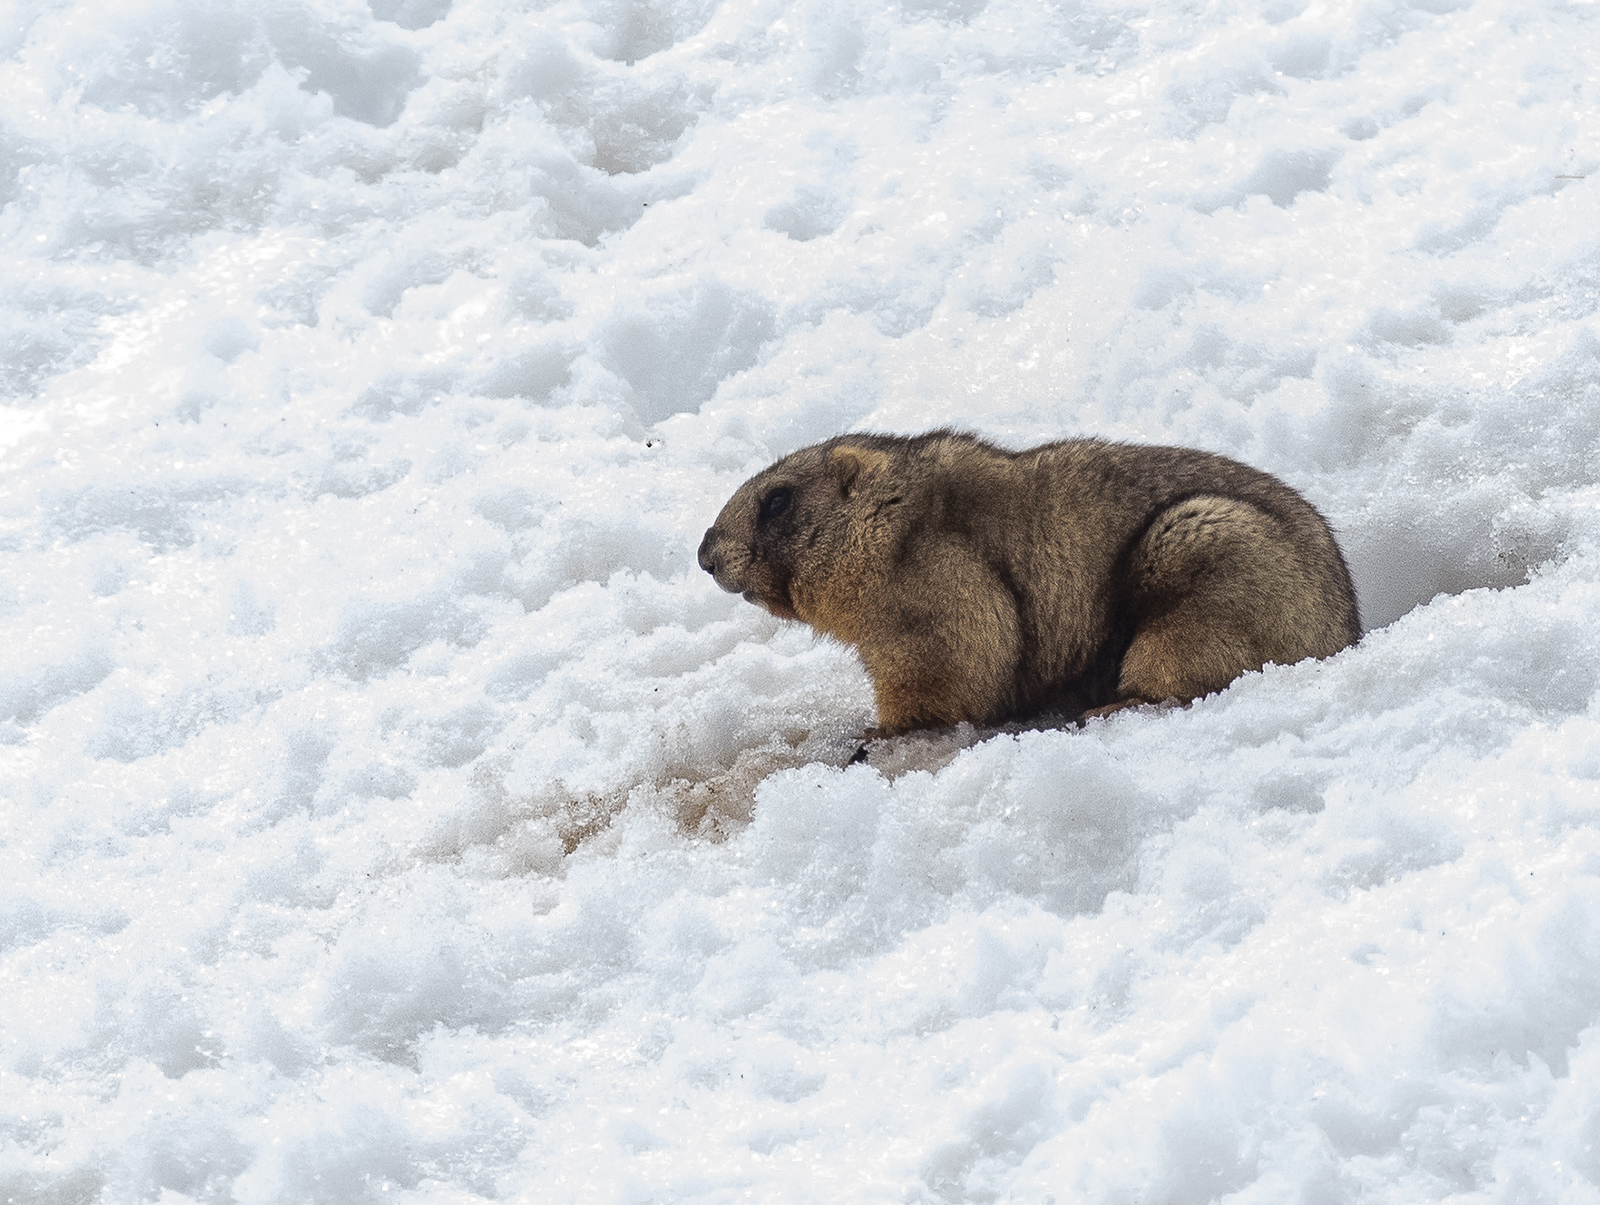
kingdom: Animalia
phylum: Chordata
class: Mammalia
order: Rodentia
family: Sciuridae
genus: Marmota
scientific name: Marmota baibacina
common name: Gray marmot
